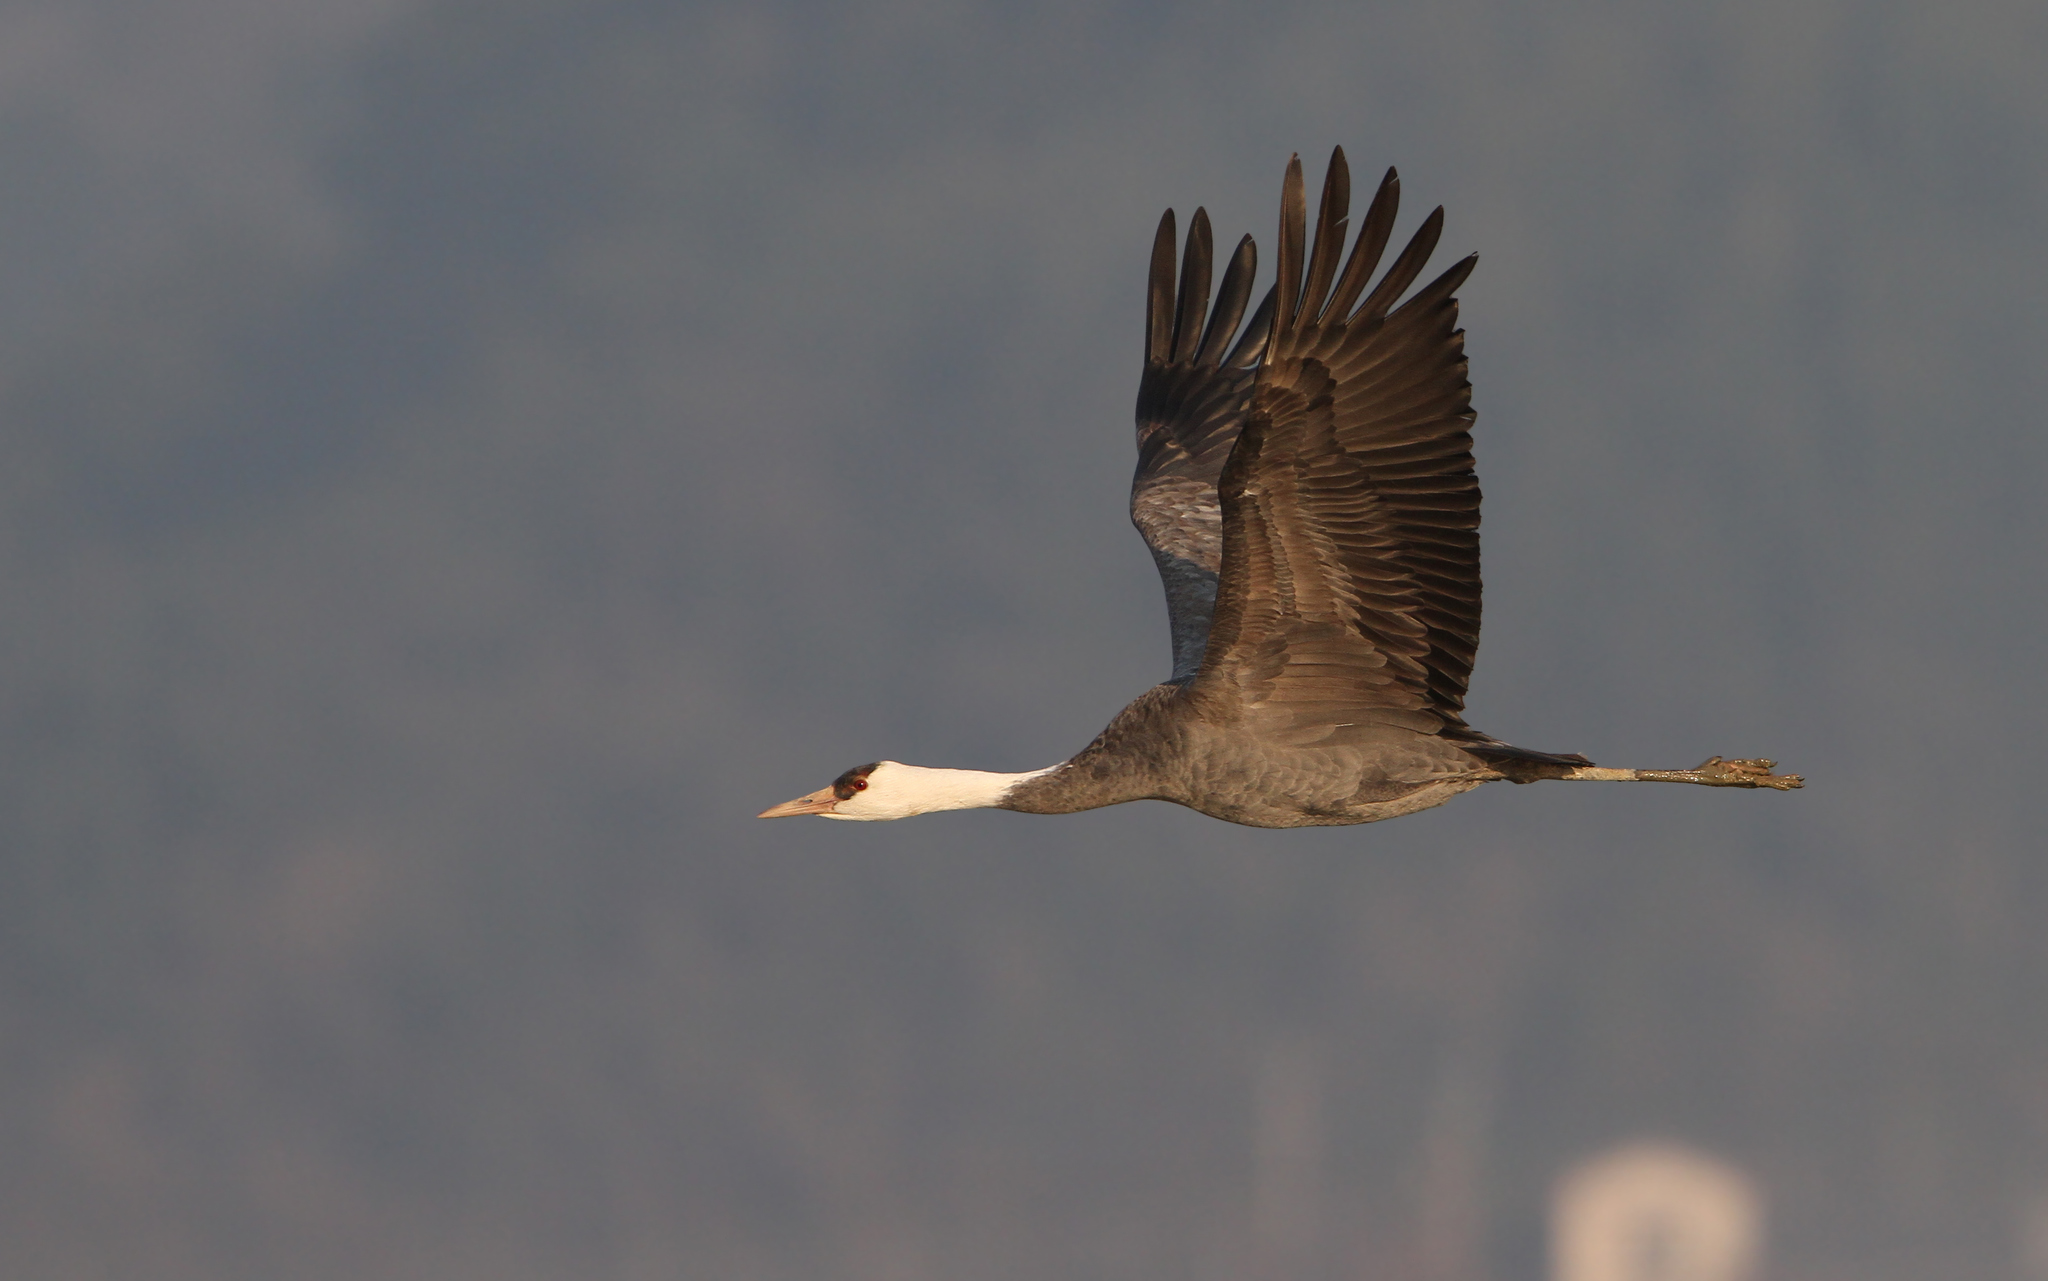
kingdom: Animalia
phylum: Chordata
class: Aves
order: Gruiformes
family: Gruidae
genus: Grus
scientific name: Grus monacha
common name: Hooded crane
